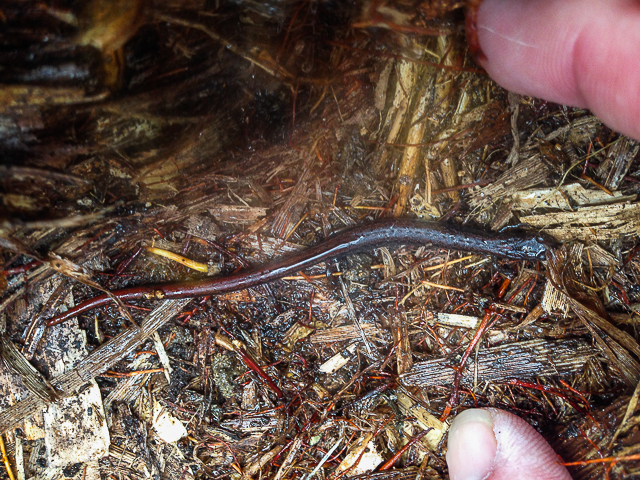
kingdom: Animalia
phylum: Chordata
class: Amphibia
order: Caudata
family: Plethodontidae
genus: Batrachoseps
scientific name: Batrachoseps attenuatus
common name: California slender salamander
